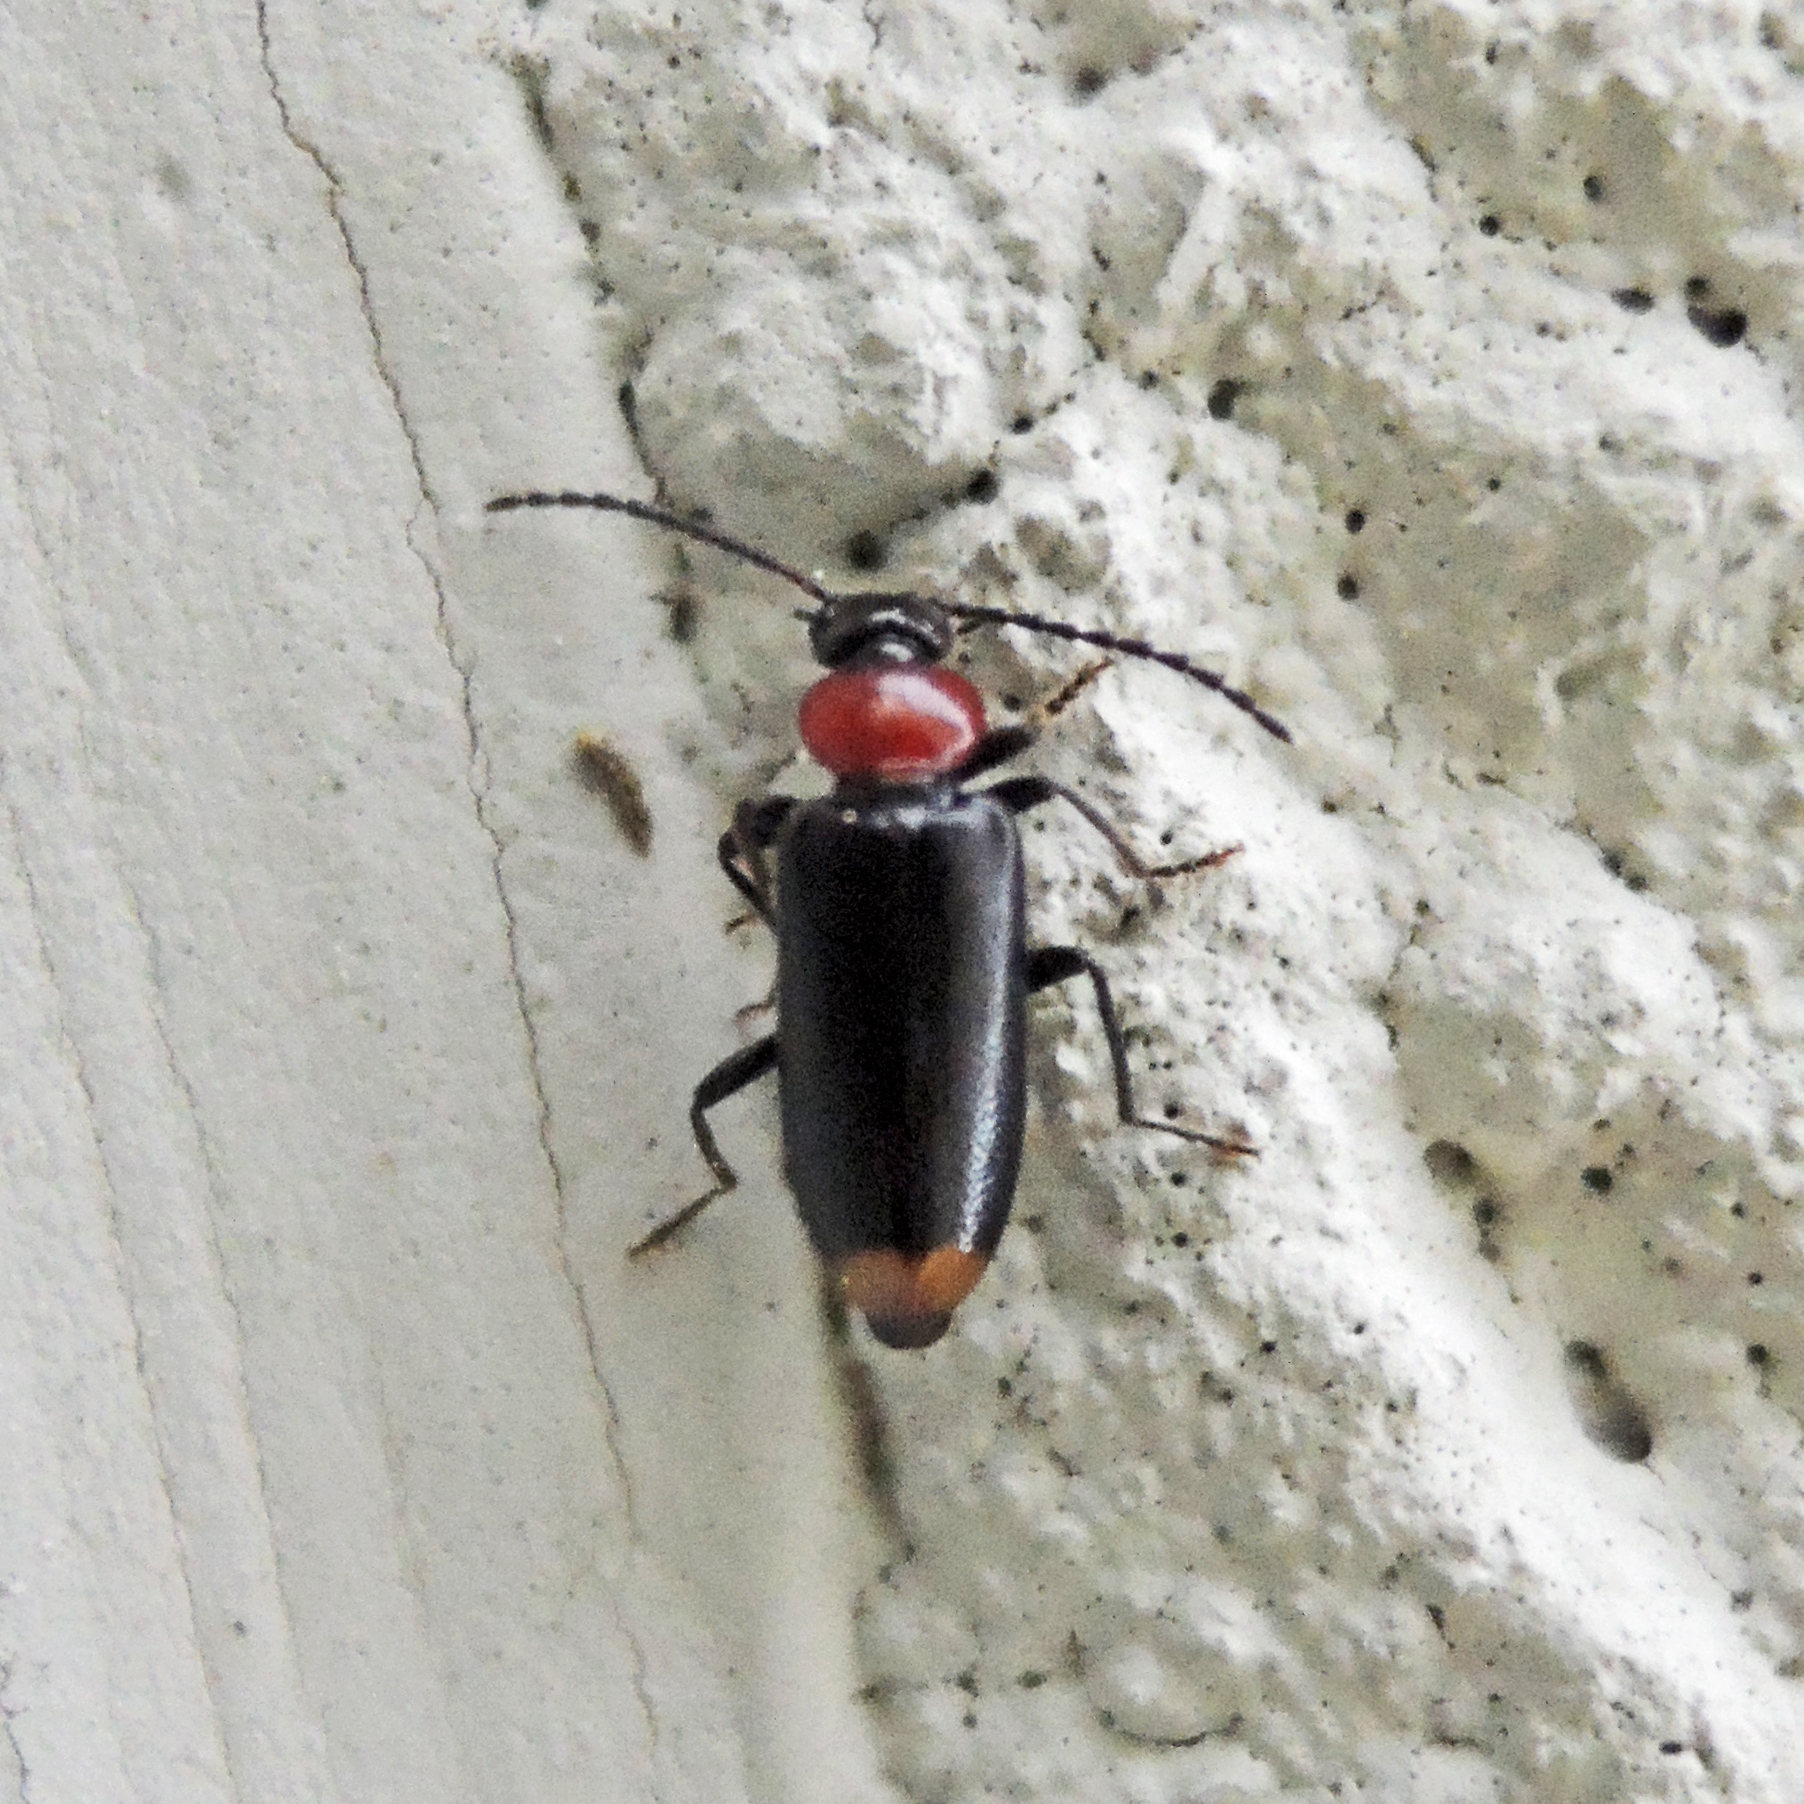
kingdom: Animalia
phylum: Arthropoda
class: Insecta
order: Coleoptera
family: Pyrochroidae
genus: Pedilus
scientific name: Pedilus terminalis
